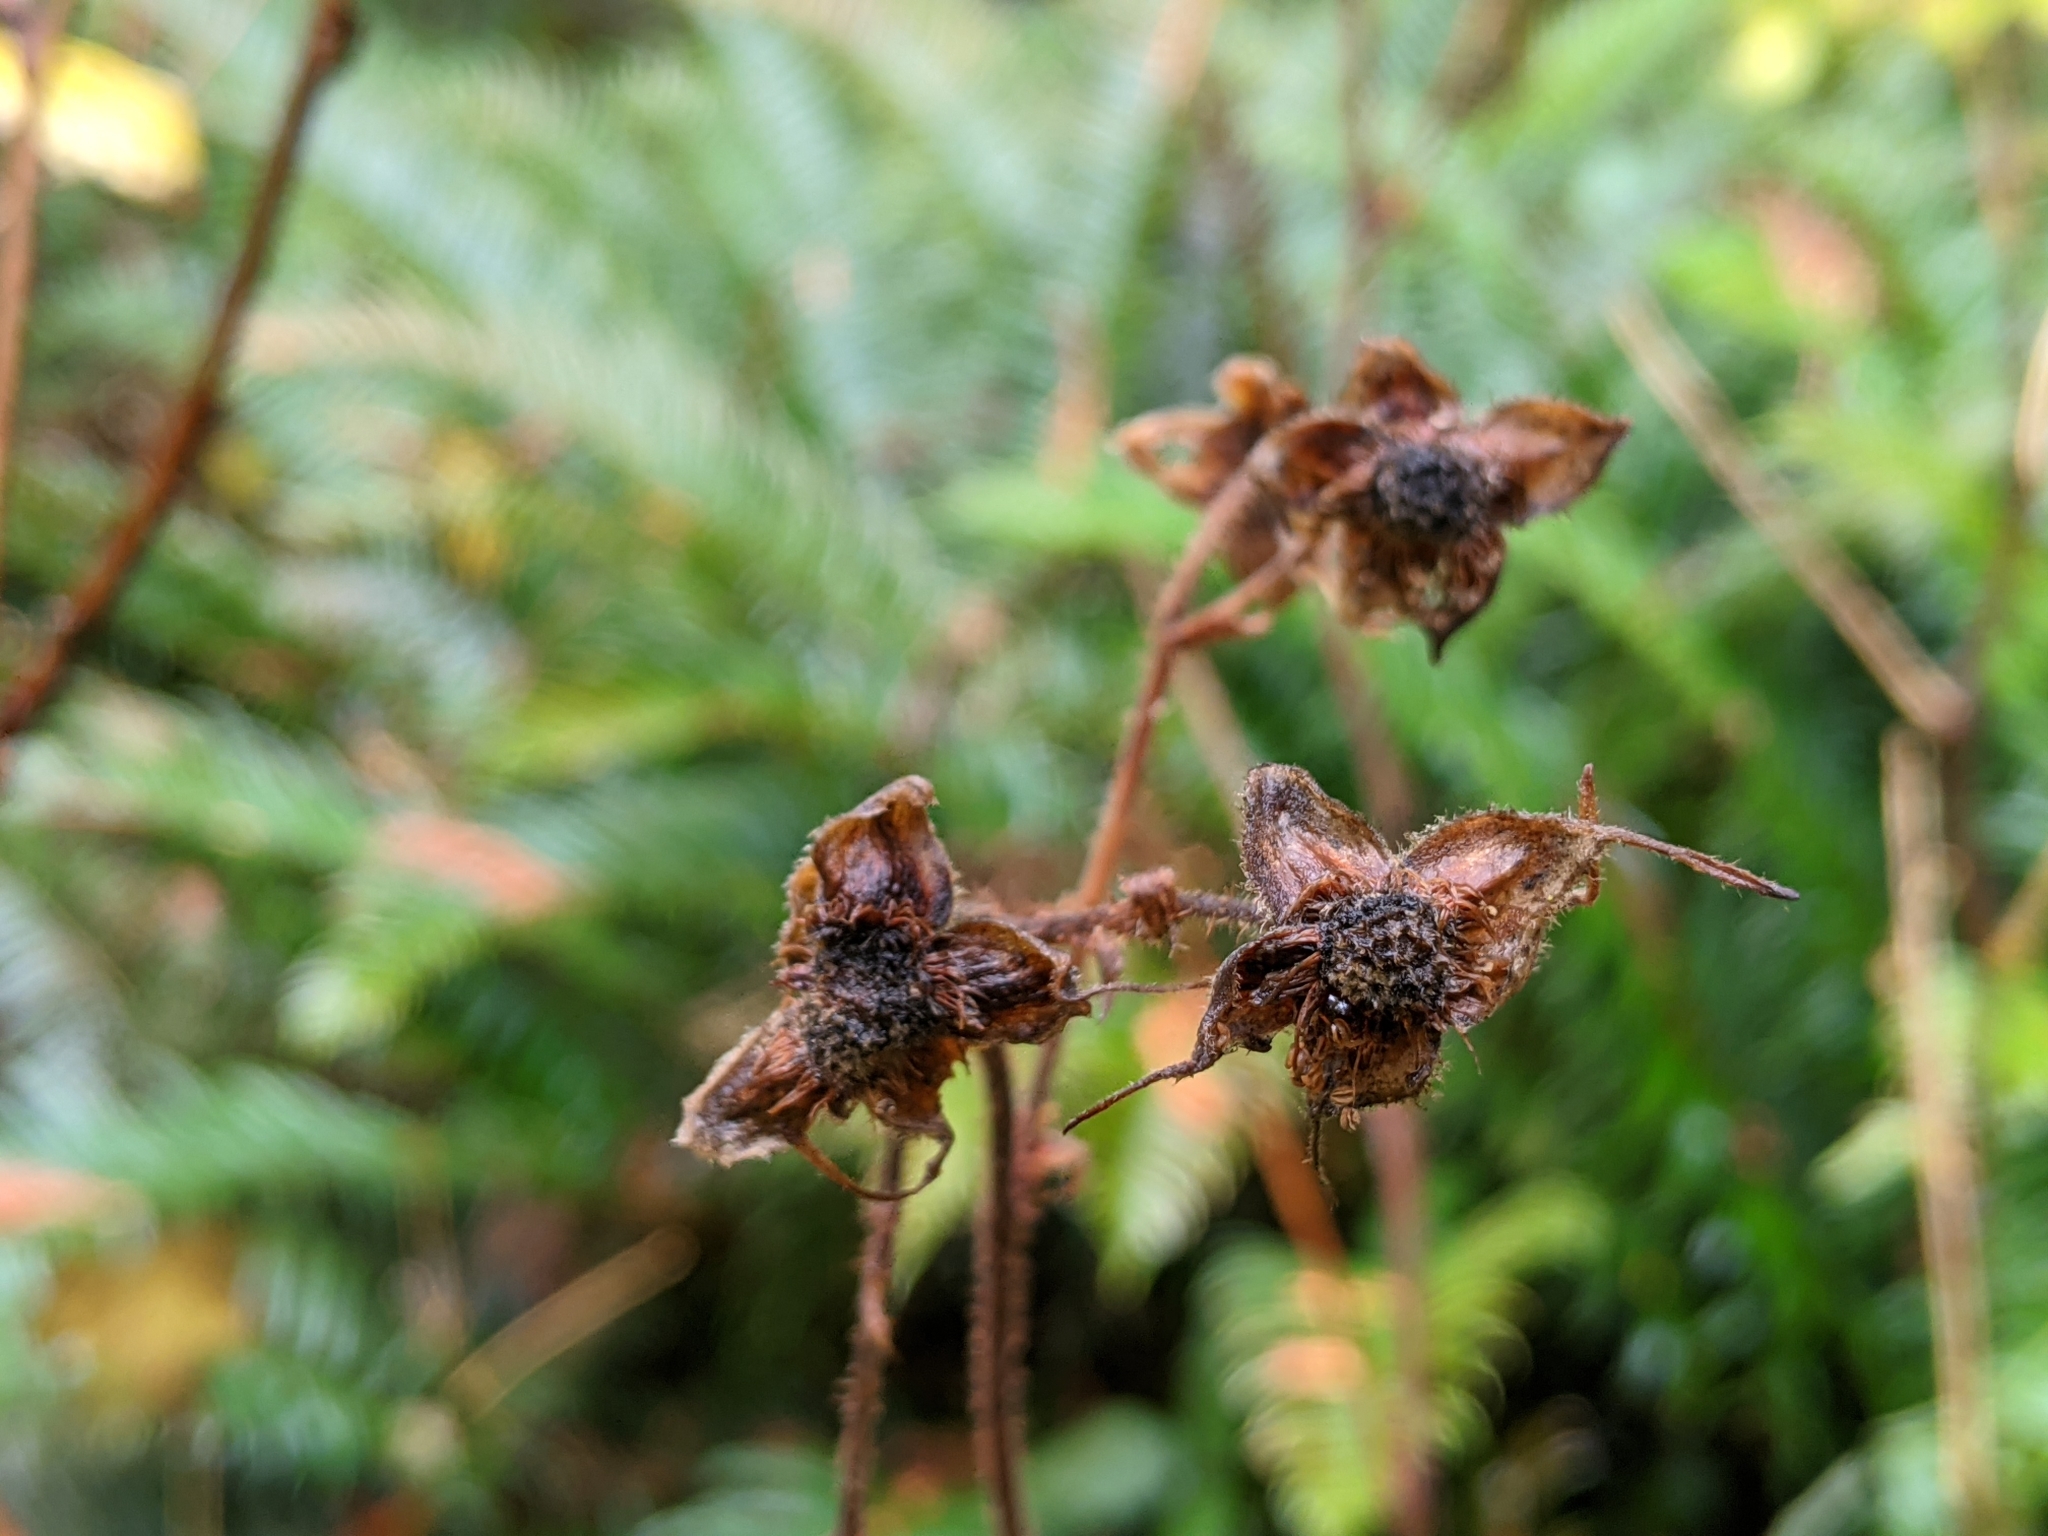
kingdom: Plantae
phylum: Tracheophyta
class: Magnoliopsida
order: Rosales
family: Rosaceae
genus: Rubus
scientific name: Rubus spectabilis
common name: Salmonberry
